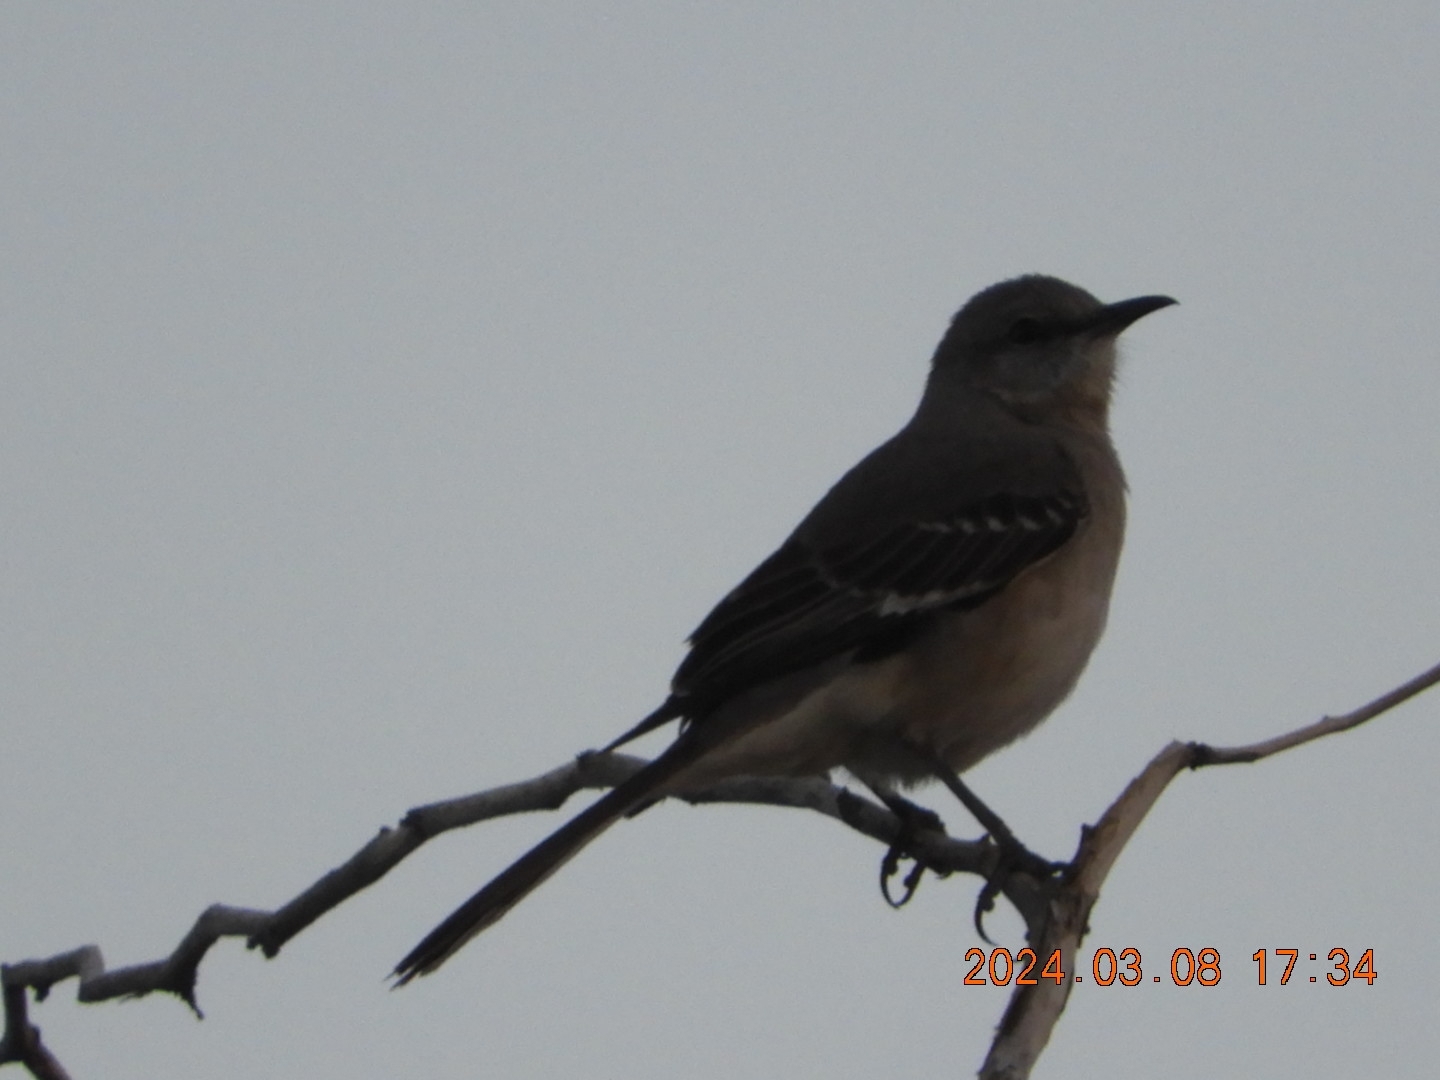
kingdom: Animalia
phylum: Chordata
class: Aves
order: Passeriformes
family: Mimidae
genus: Mimus
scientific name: Mimus polyglottos
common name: Northern mockingbird
